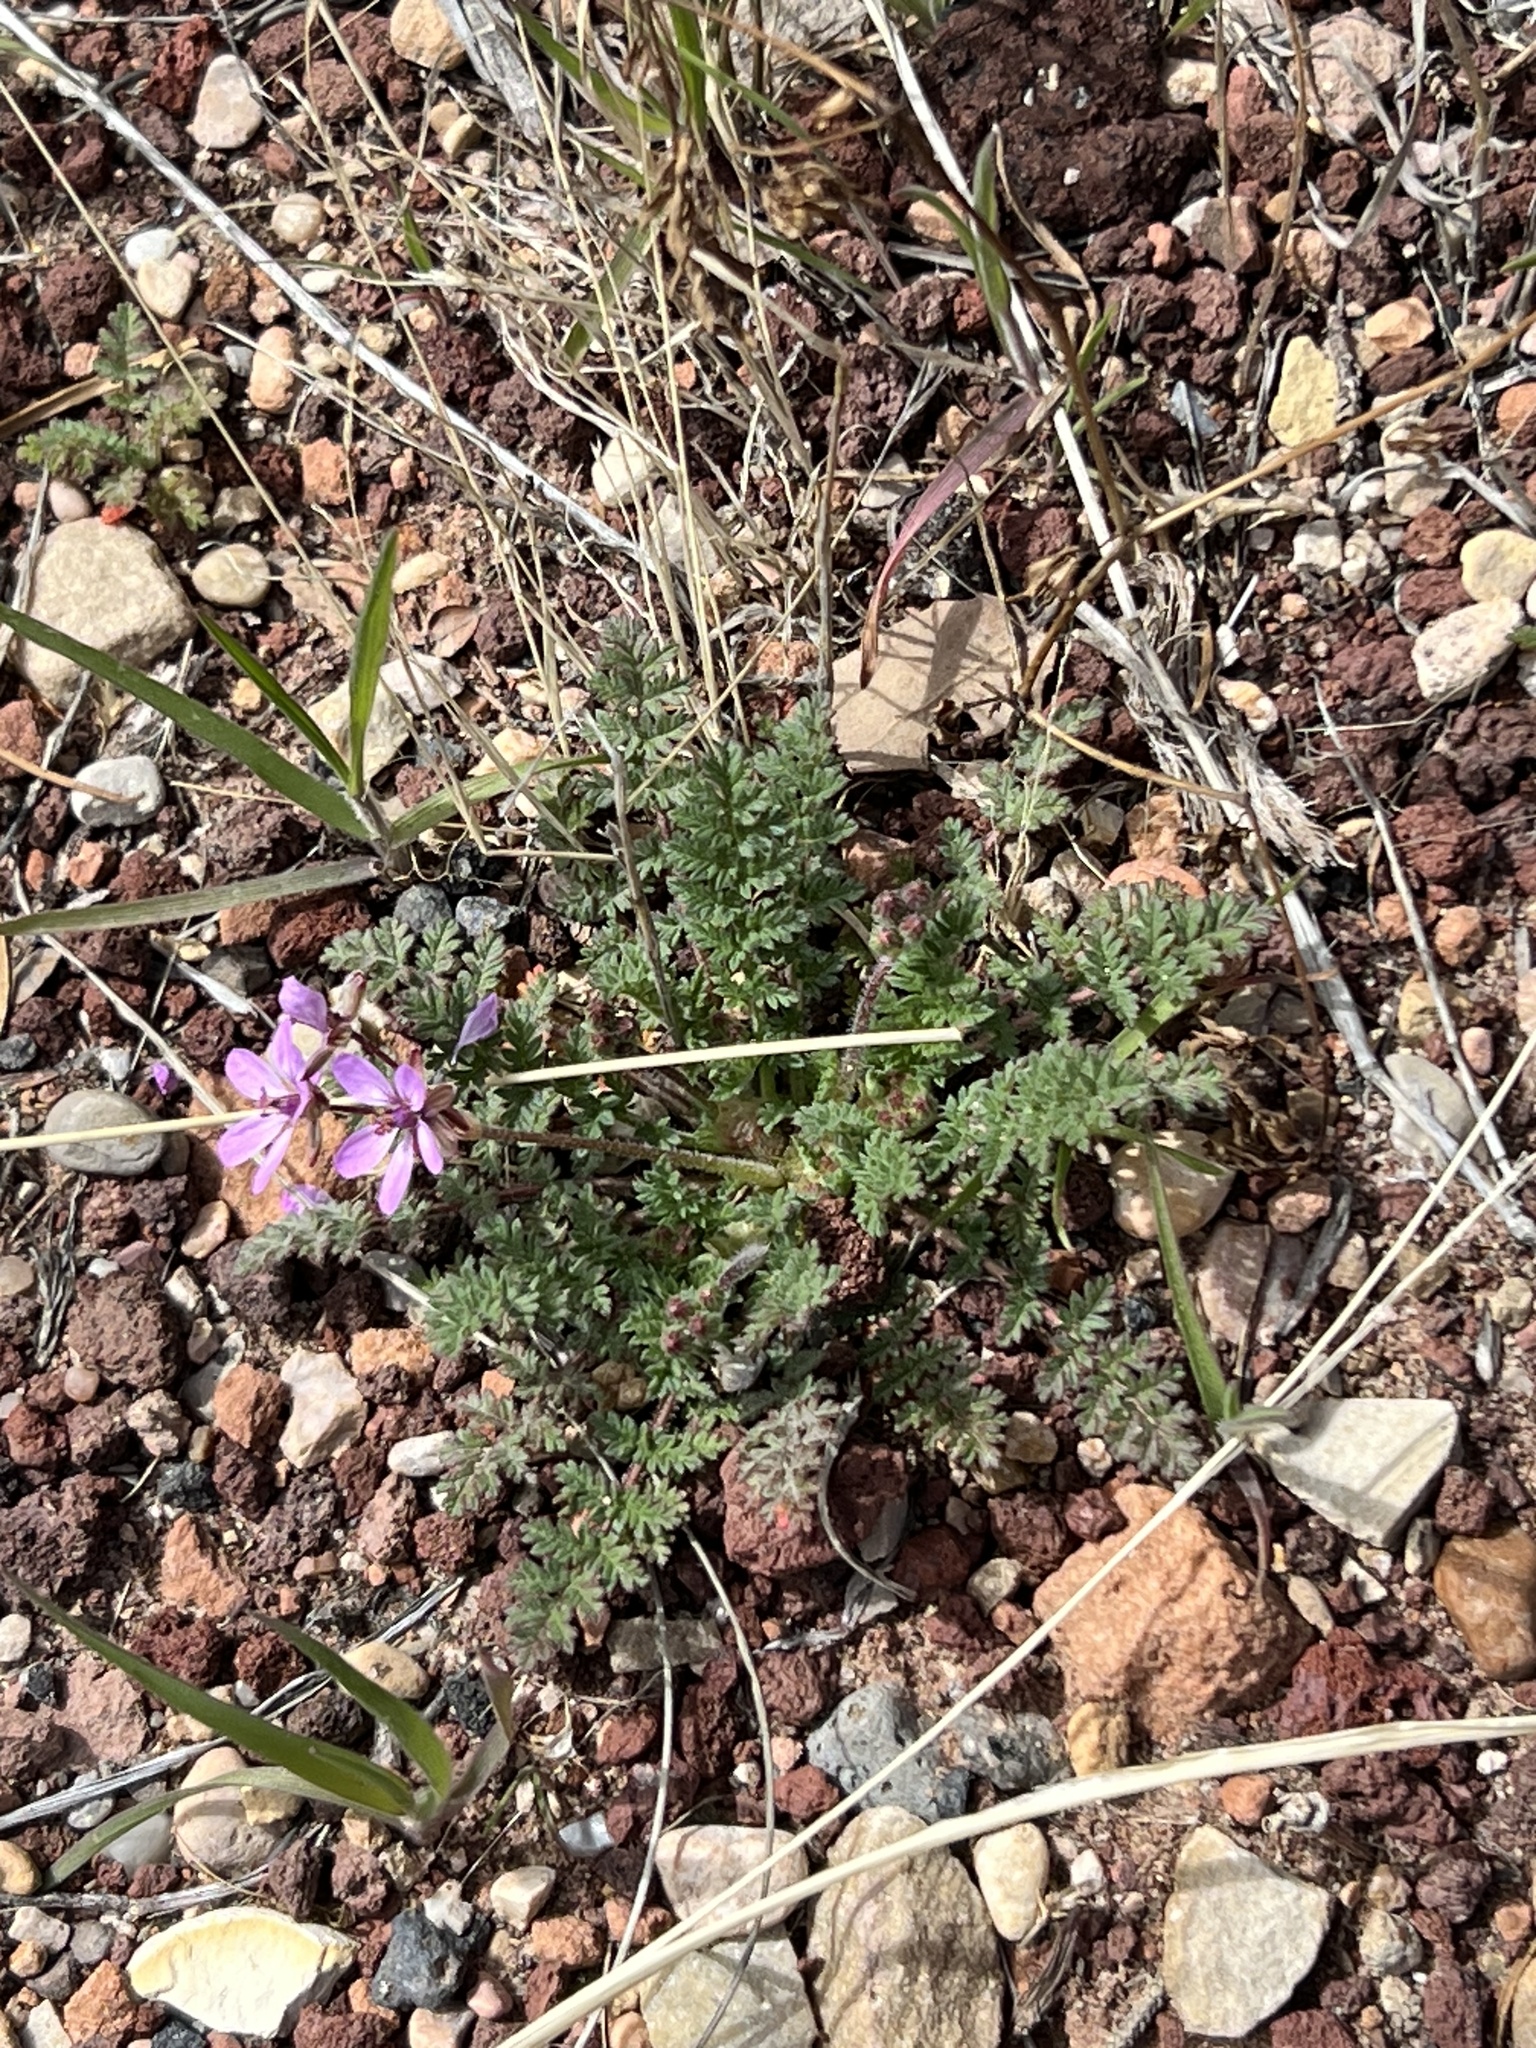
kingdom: Plantae
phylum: Tracheophyta
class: Magnoliopsida
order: Geraniales
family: Geraniaceae
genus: Erodium
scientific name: Erodium cicutarium
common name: Common stork's-bill
